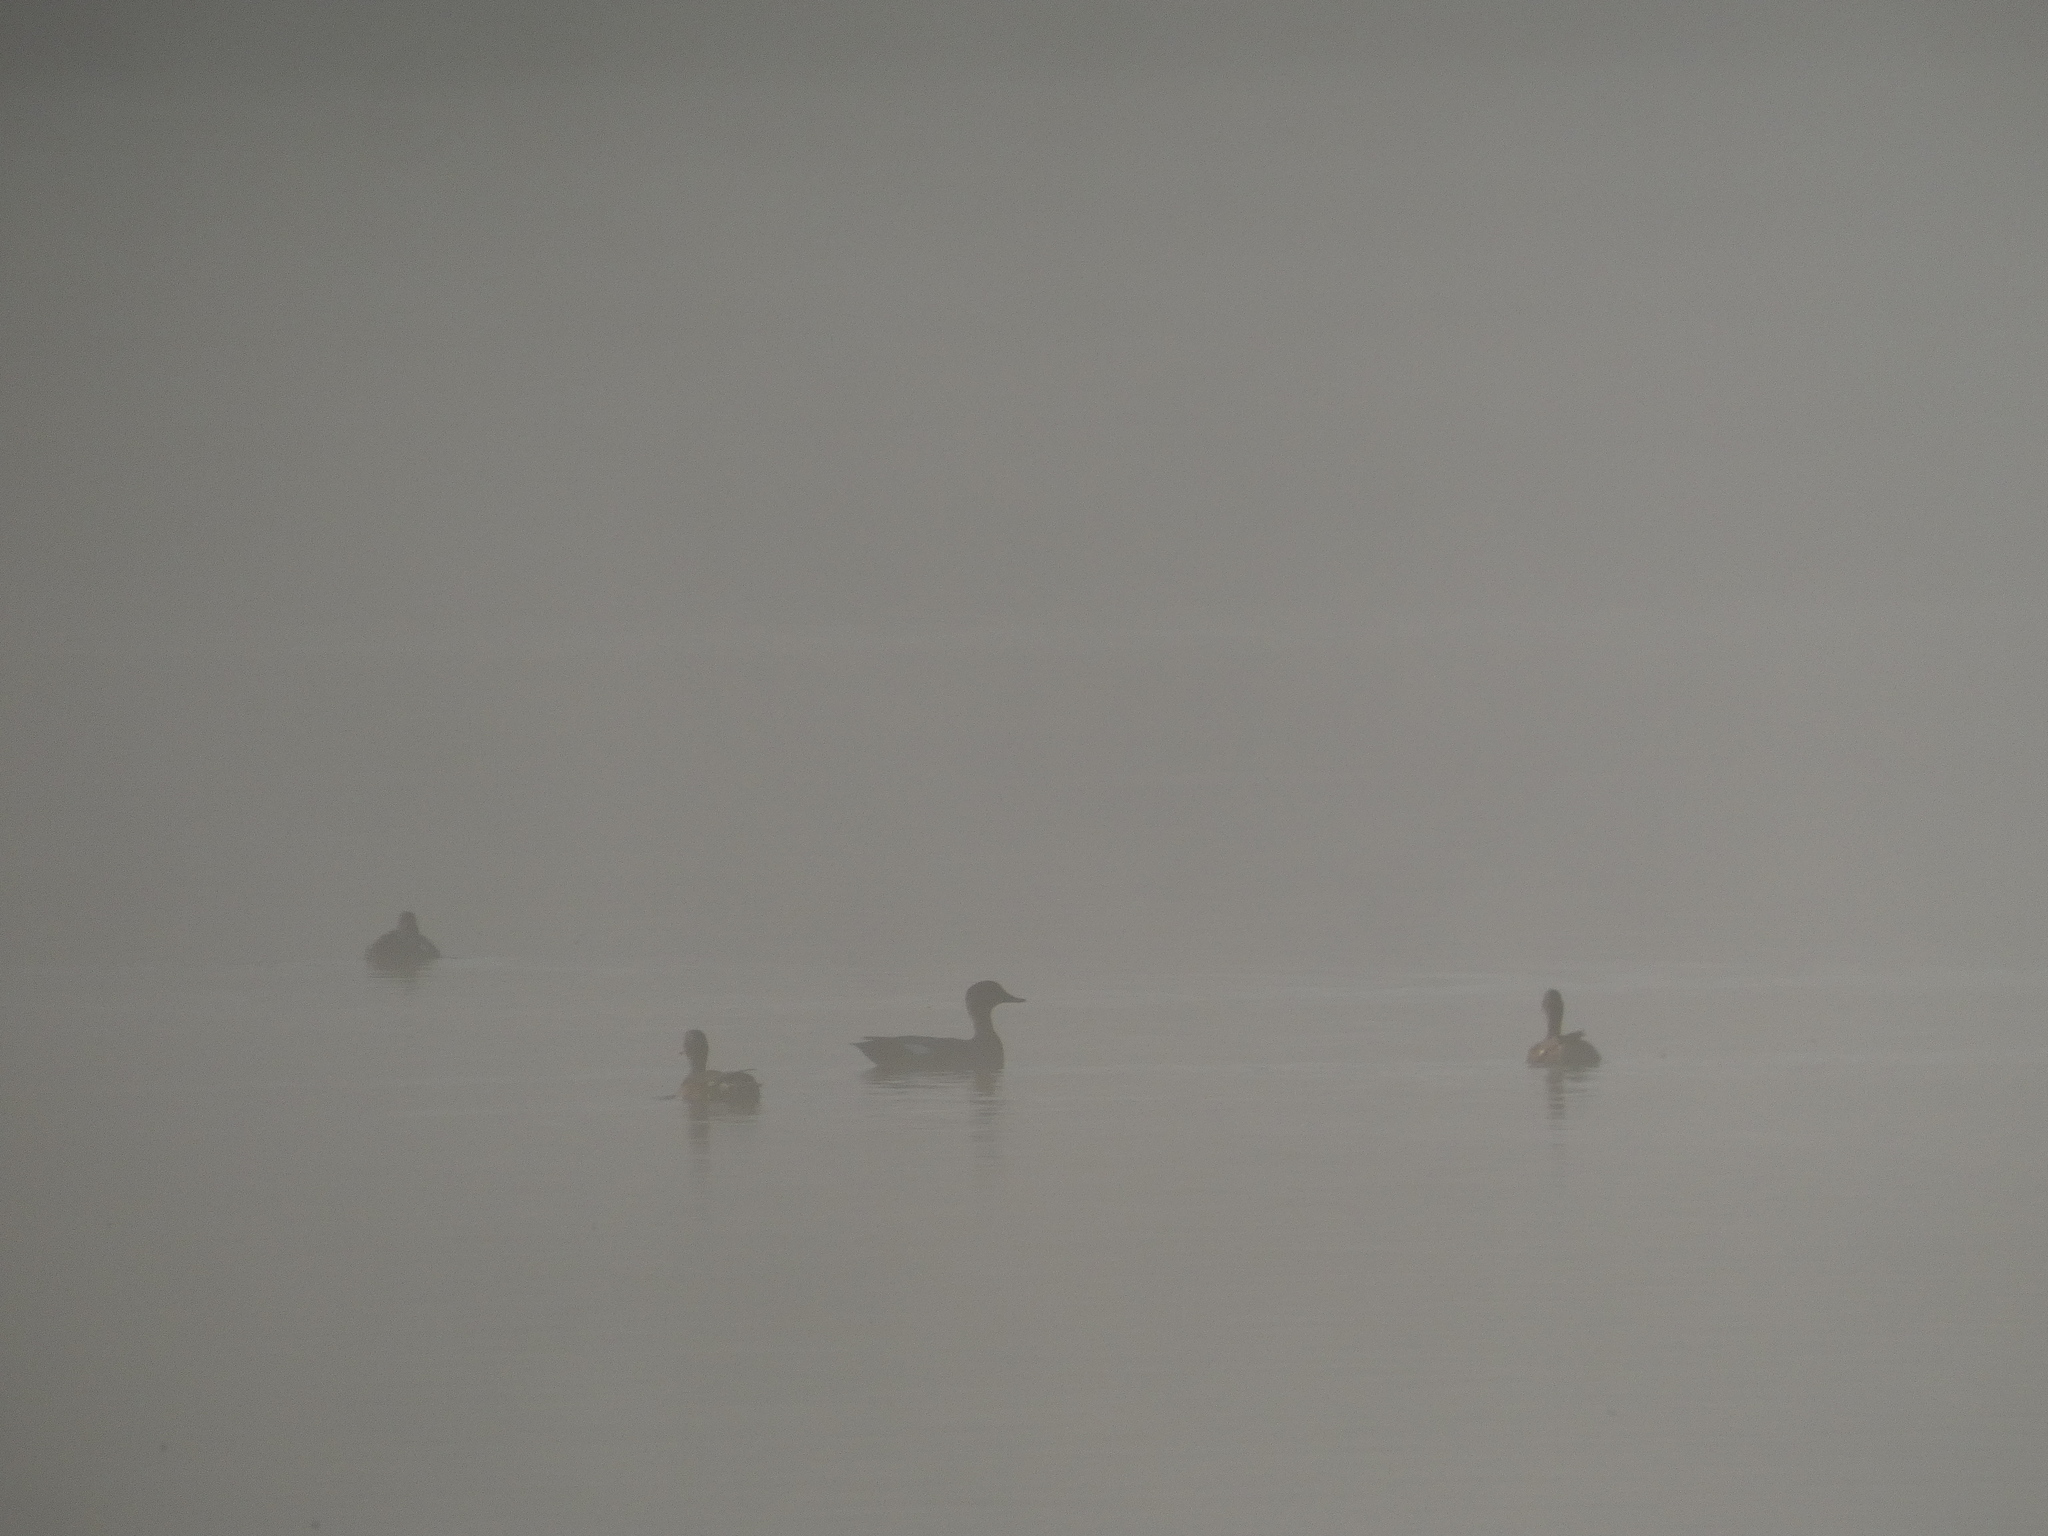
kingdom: Animalia
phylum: Chordata
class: Aves
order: Anseriformes
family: Anatidae
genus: Mareca
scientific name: Mareca strepera
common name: Gadwall
